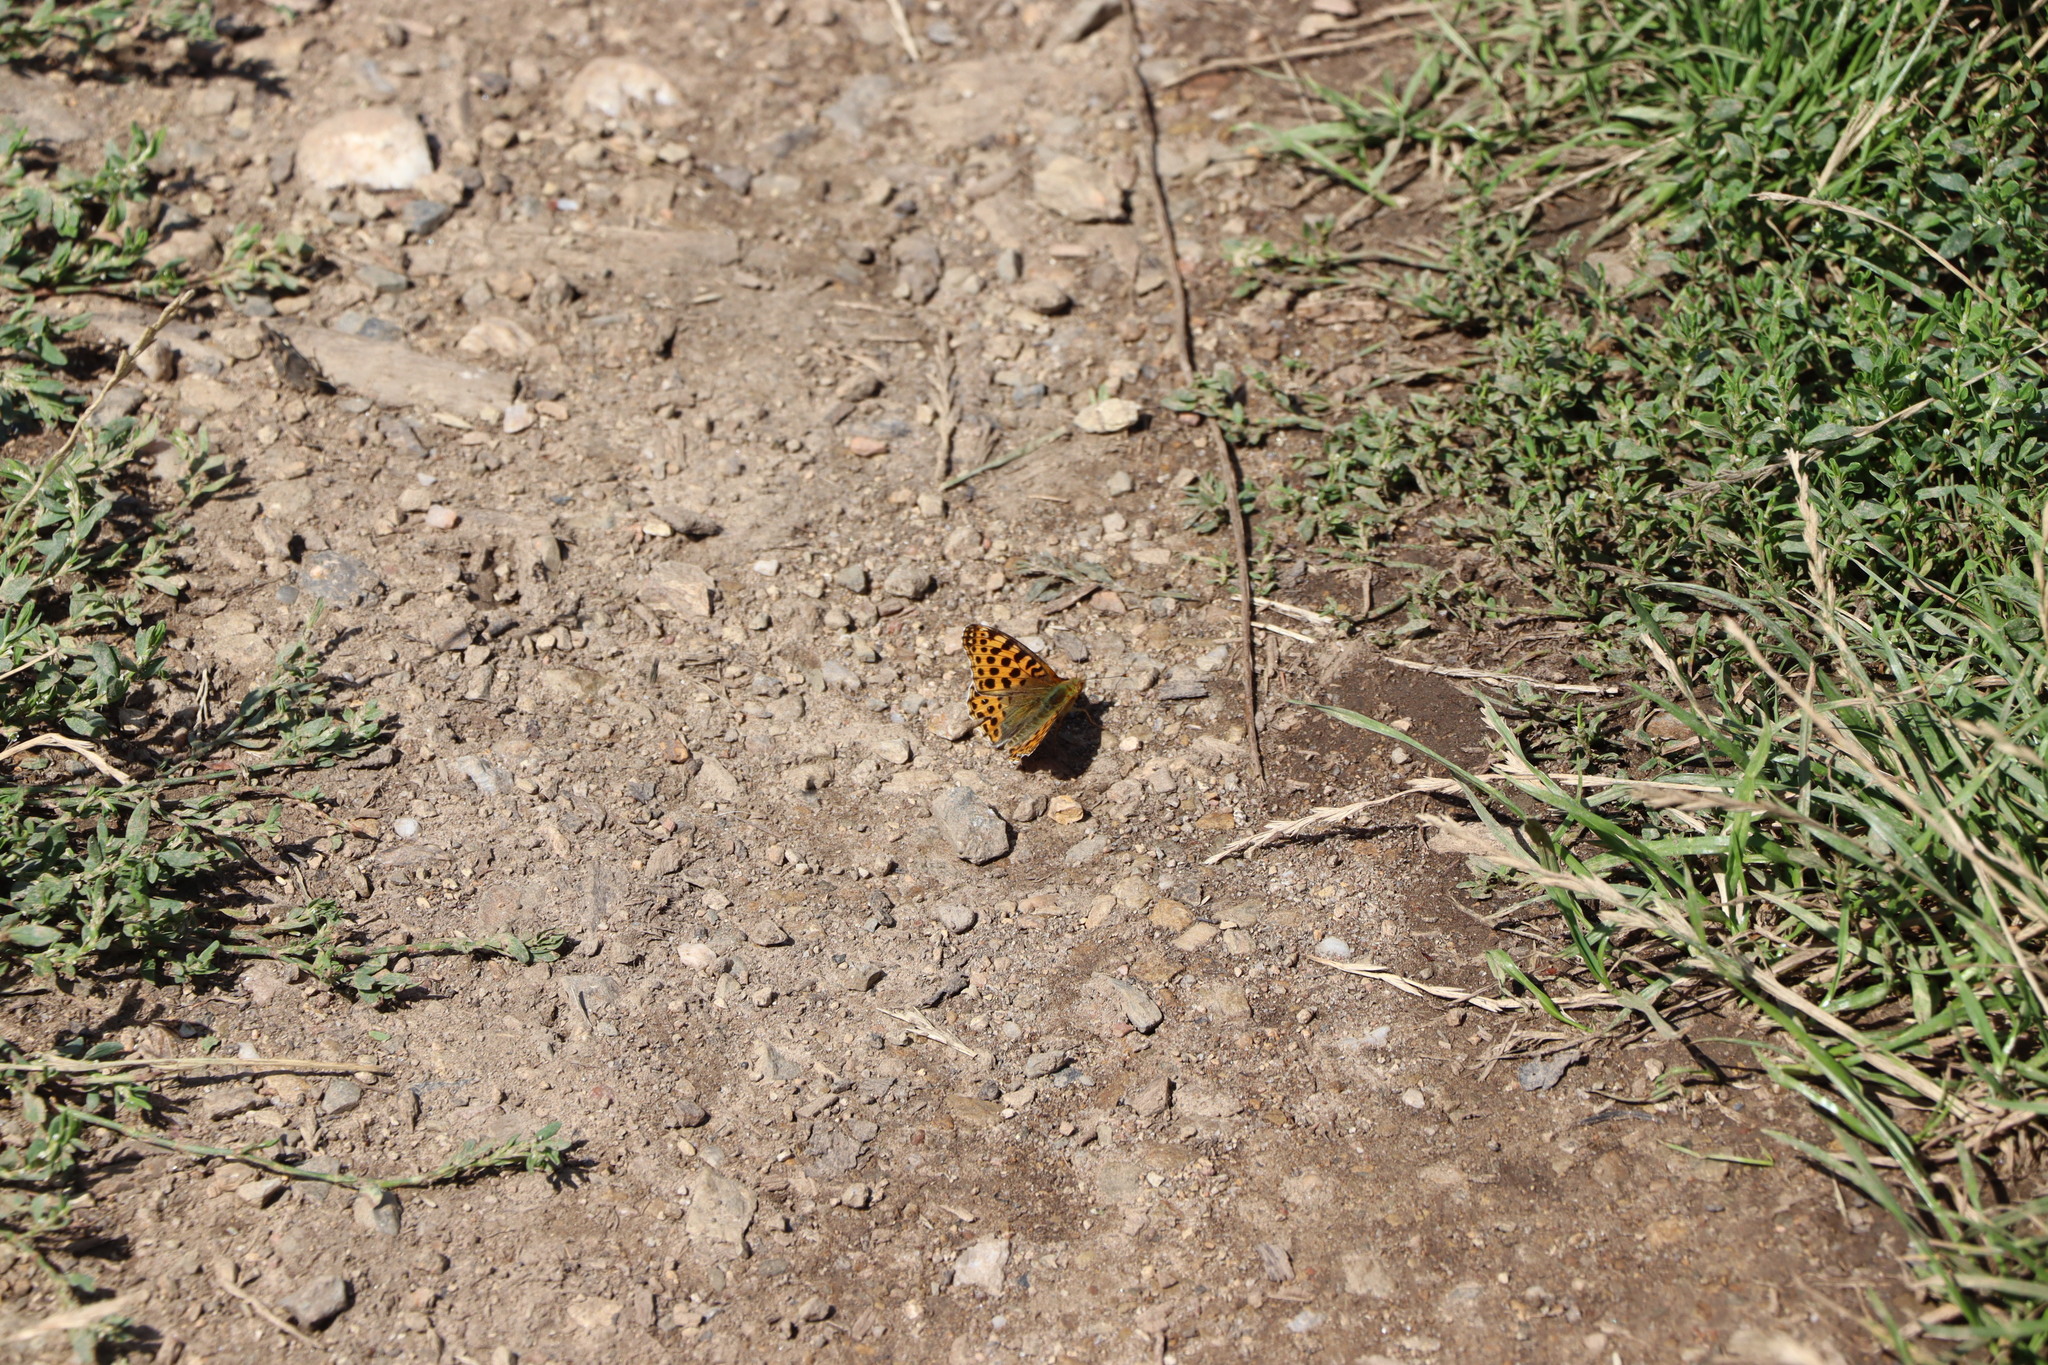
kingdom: Animalia
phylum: Arthropoda
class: Insecta
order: Lepidoptera
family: Nymphalidae
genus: Issoria
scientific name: Issoria lathonia
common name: Queen of spain fritillary
